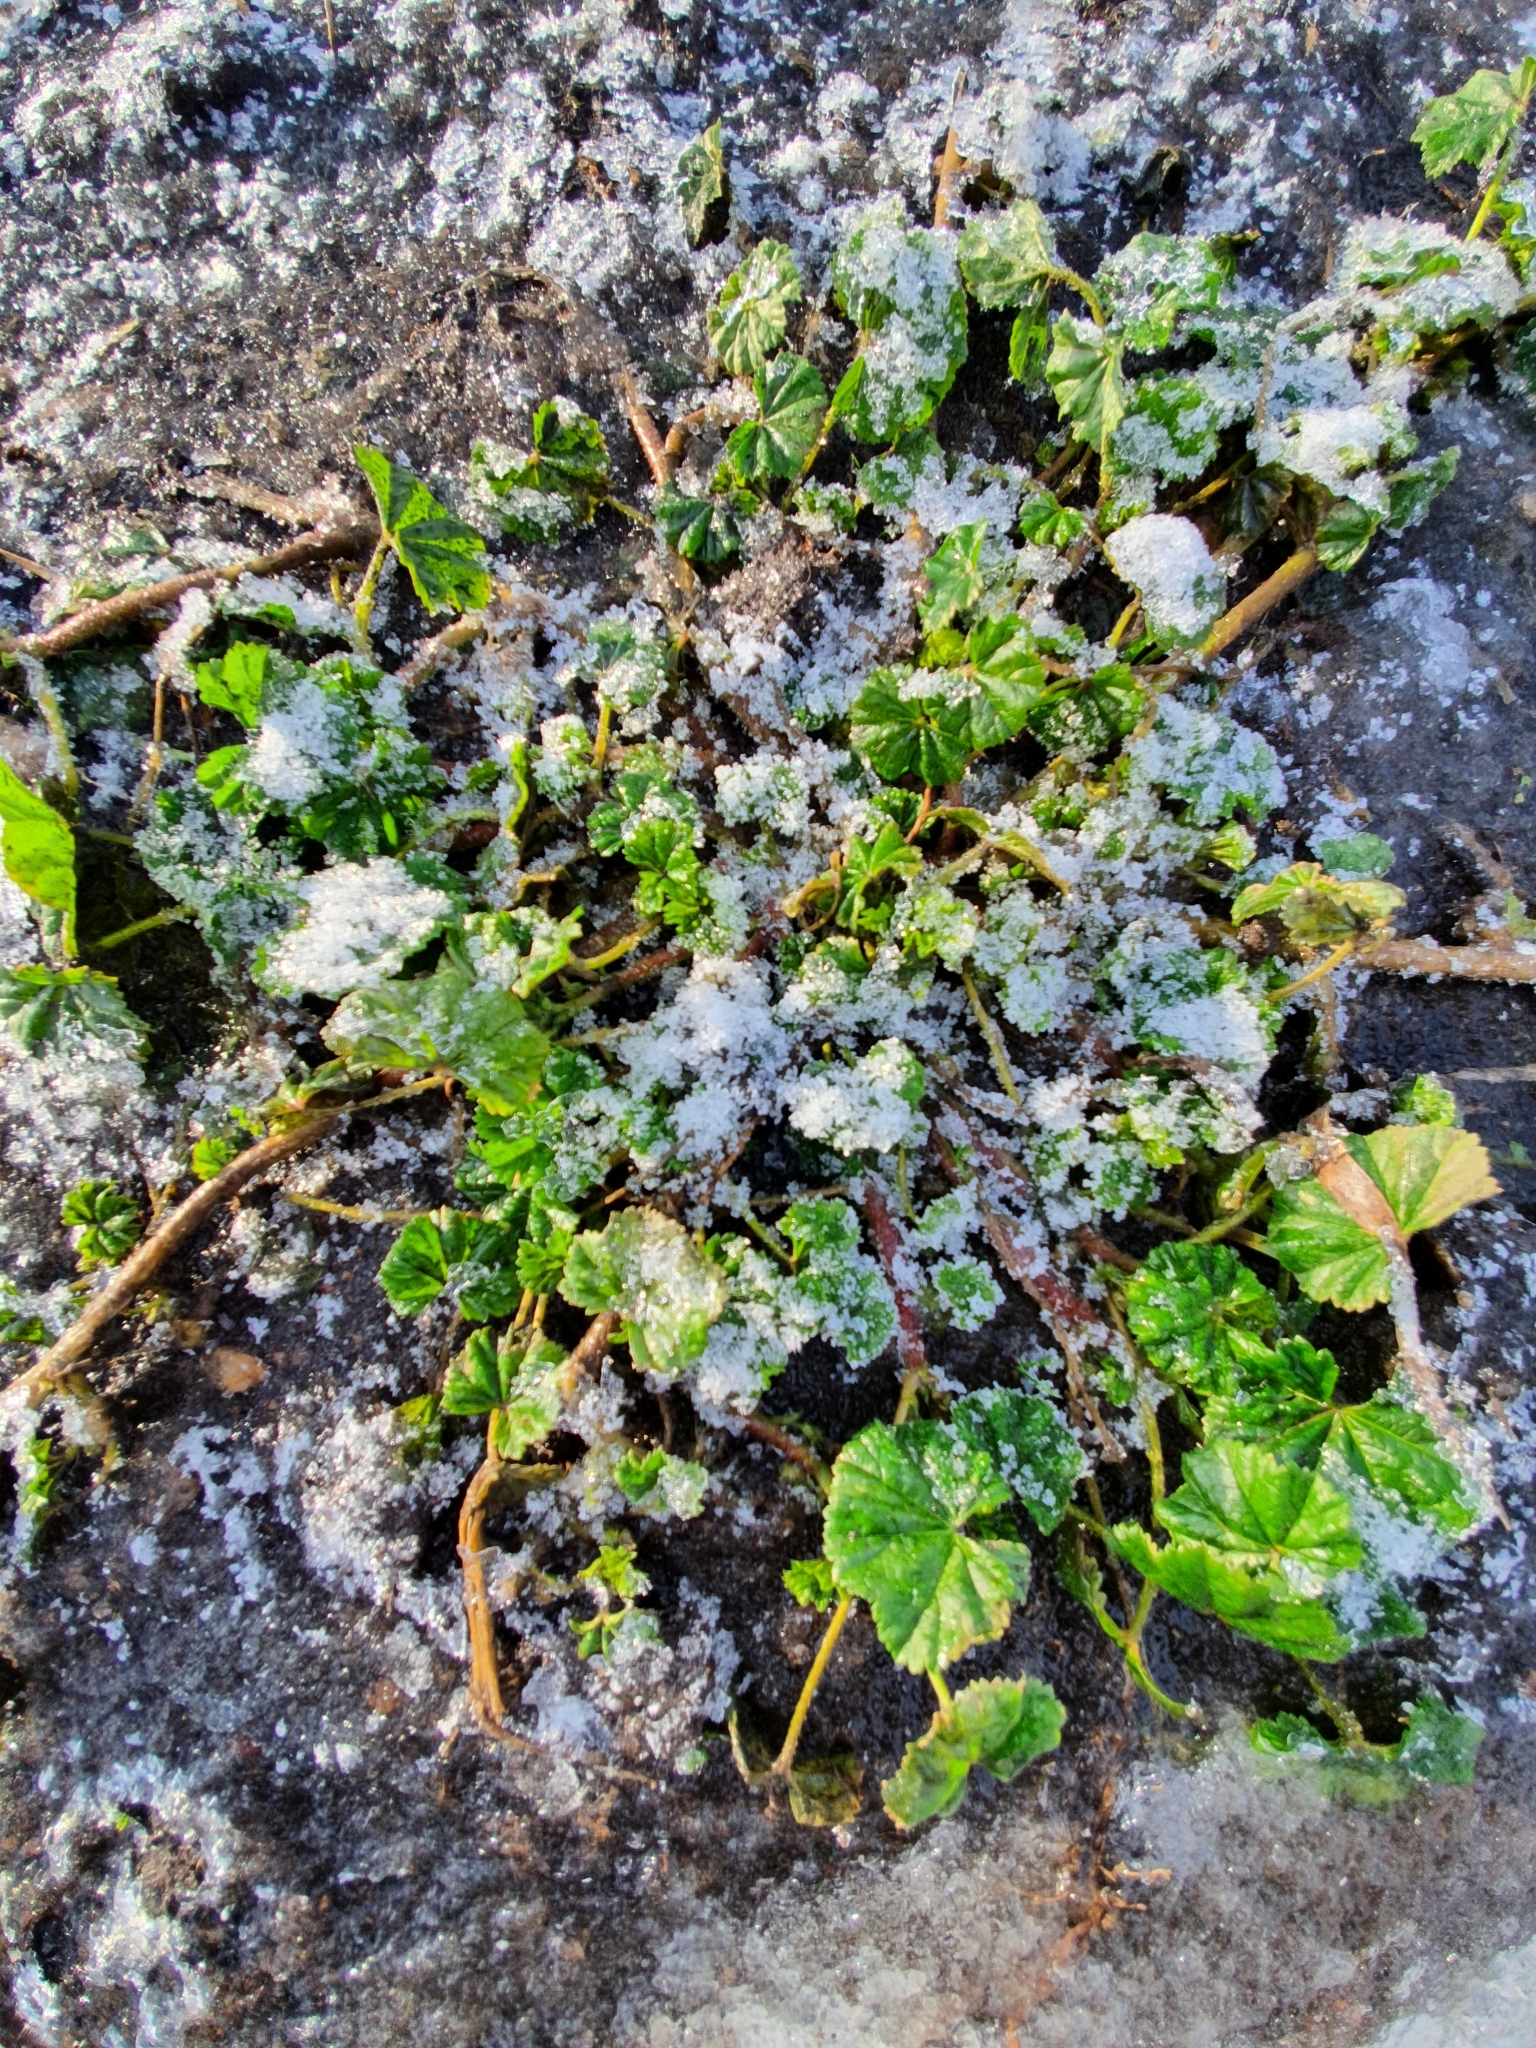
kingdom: Plantae
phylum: Tracheophyta
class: Magnoliopsida
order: Malvales
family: Malvaceae
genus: Malva
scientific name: Malva pusilla
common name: Small mallow
